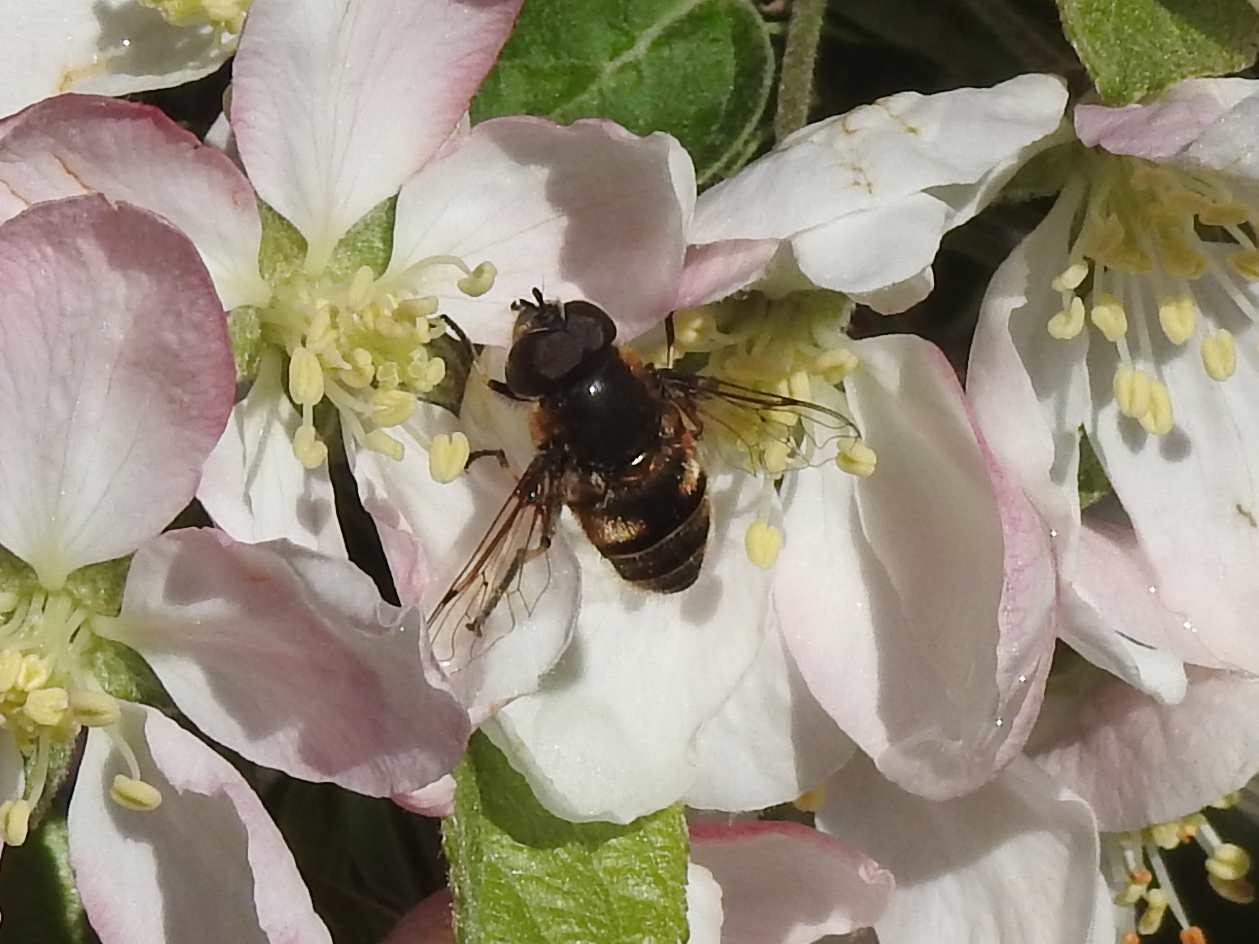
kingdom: Animalia
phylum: Arthropoda
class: Insecta
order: Diptera
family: Syrphidae
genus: Eristalis
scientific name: Eristalis dimidiata
